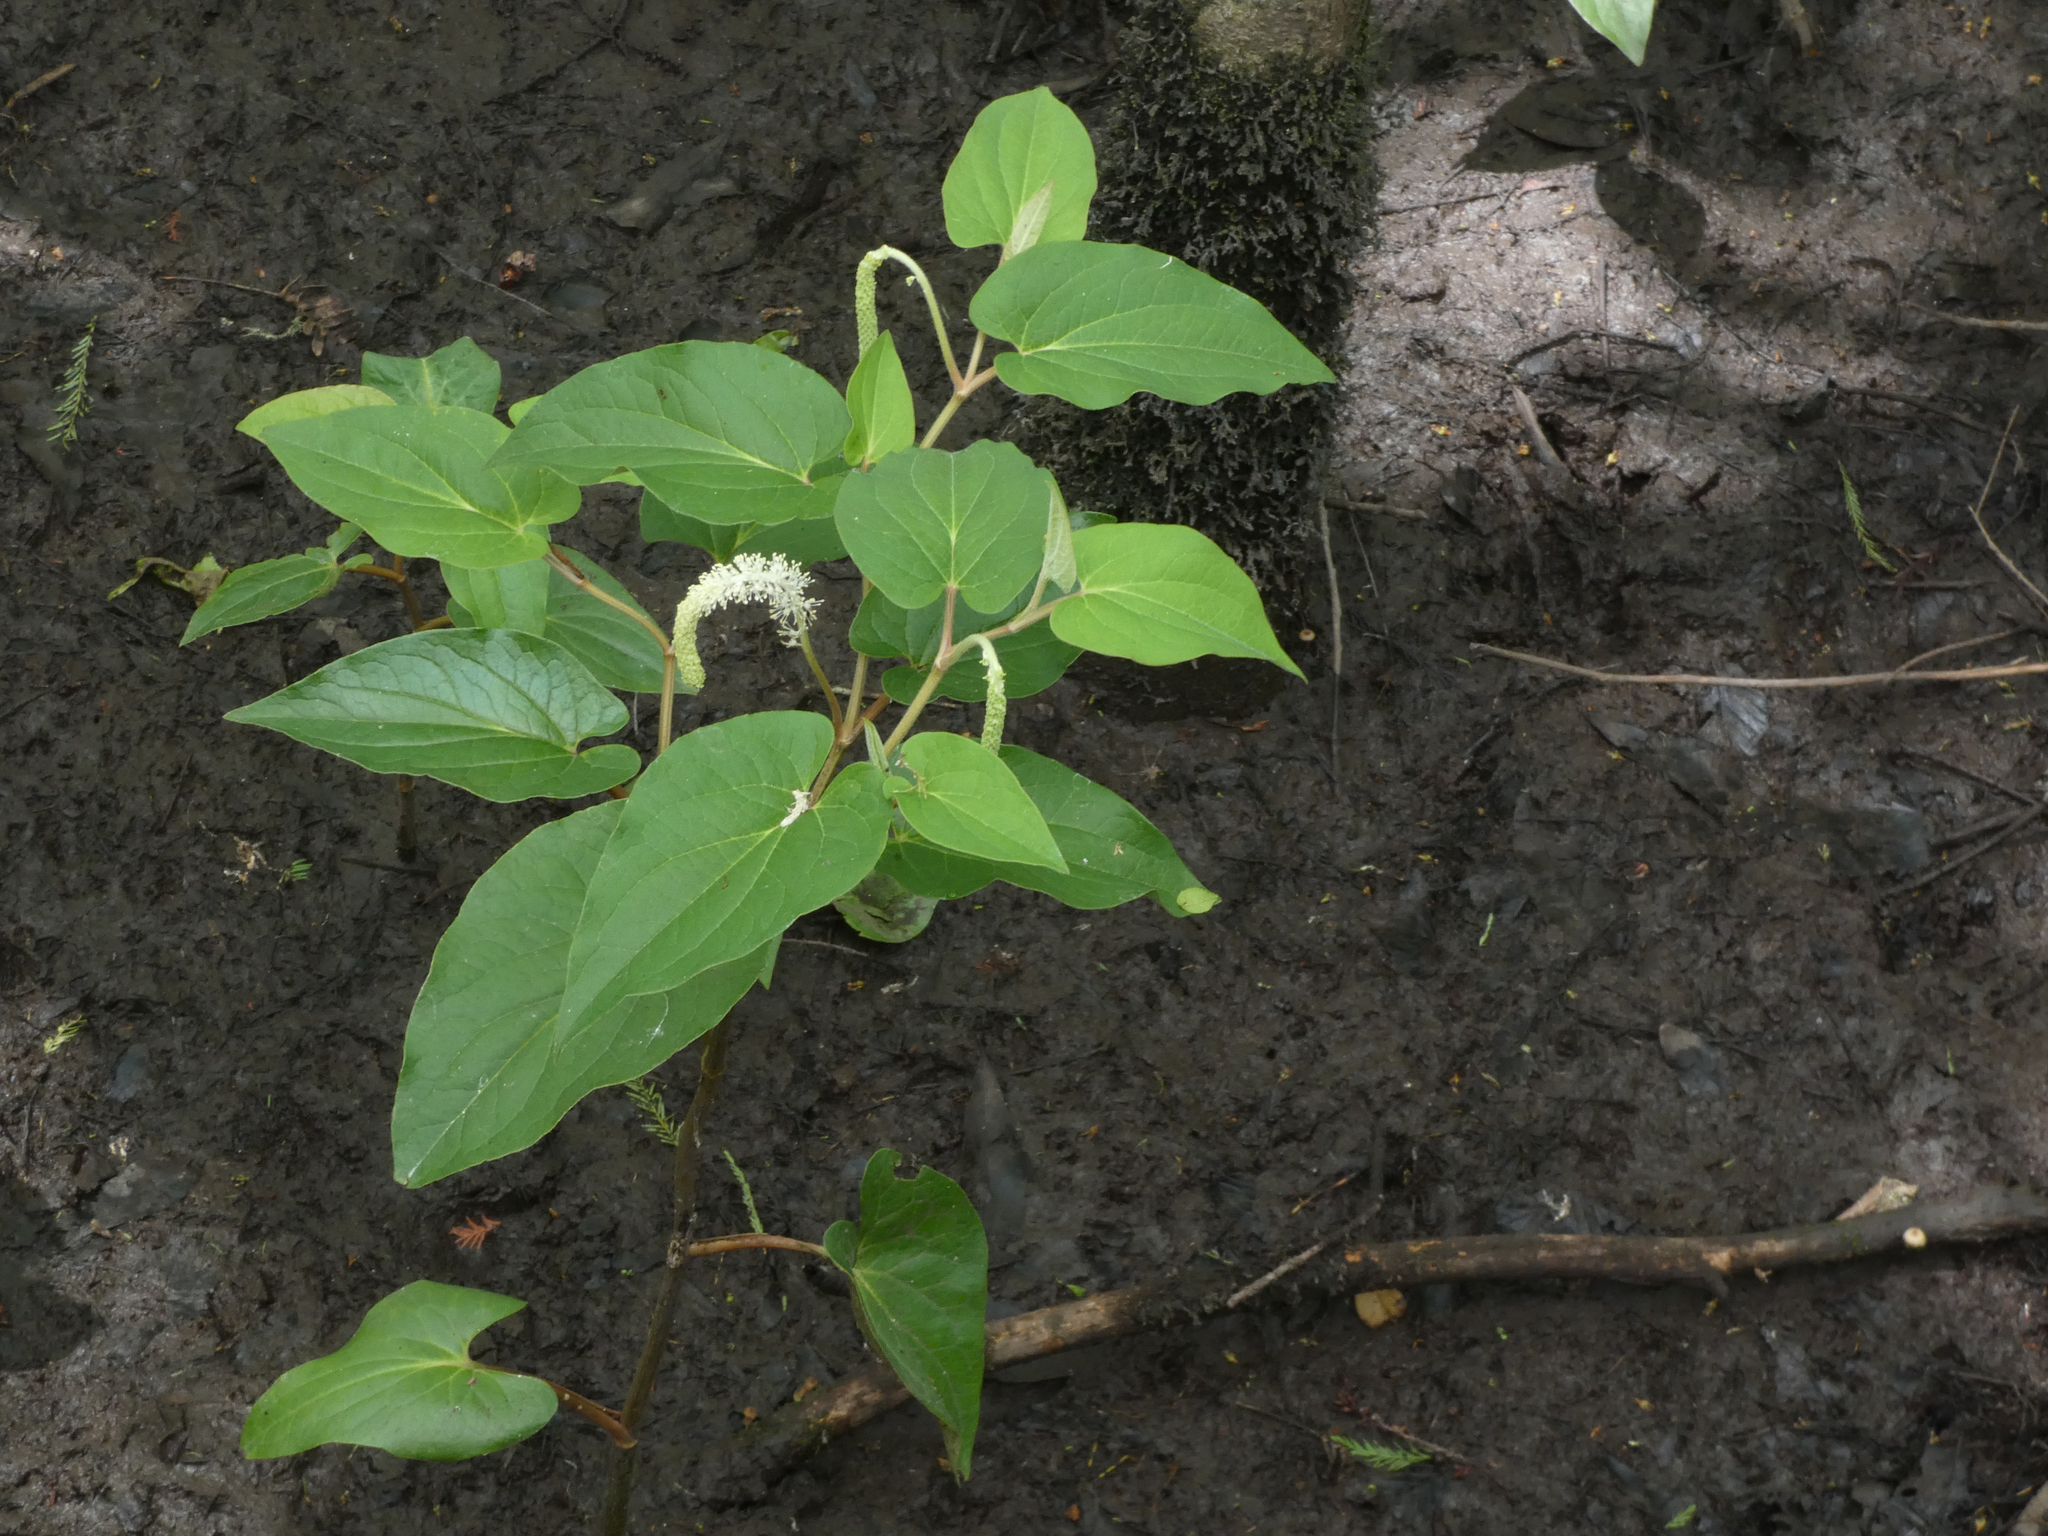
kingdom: Plantae
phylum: Tracheophyta
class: Magnoliopsida
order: Piperales
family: Saururaceae
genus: Saururus
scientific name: Saururus cernuus
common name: Lizard's-tail
